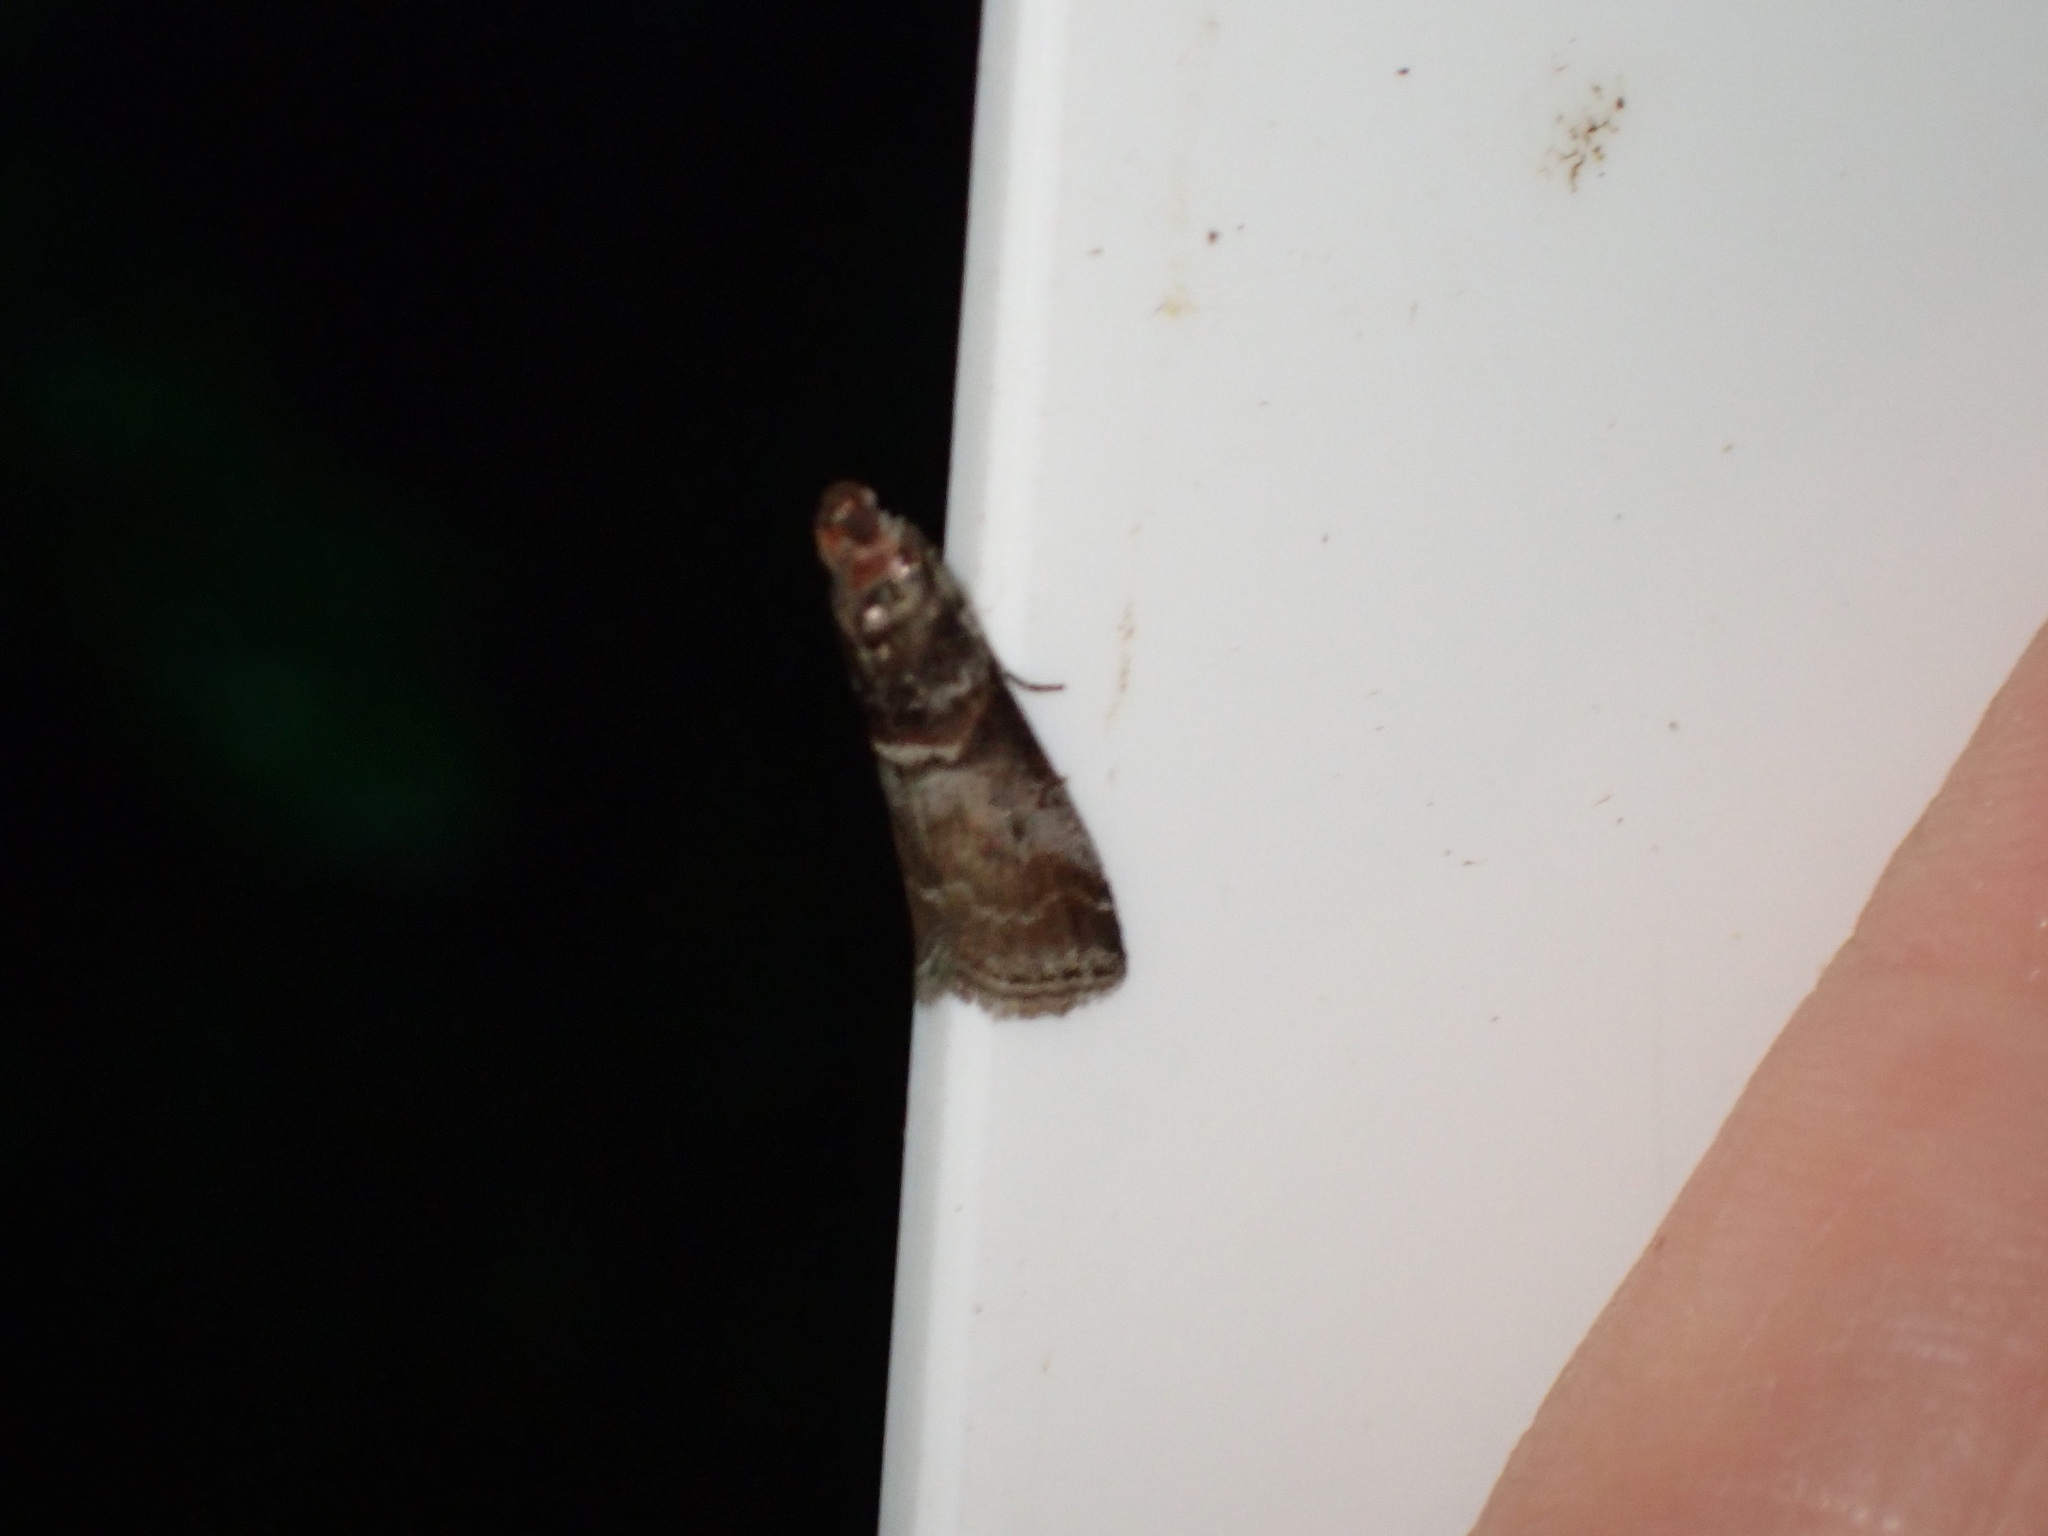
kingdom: Animalia
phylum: Arthropoda
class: Insecta
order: Lepidoptera
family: Pyralidae
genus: Acrobasis
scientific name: Acrobasis advenella
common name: Grey knot-horn
